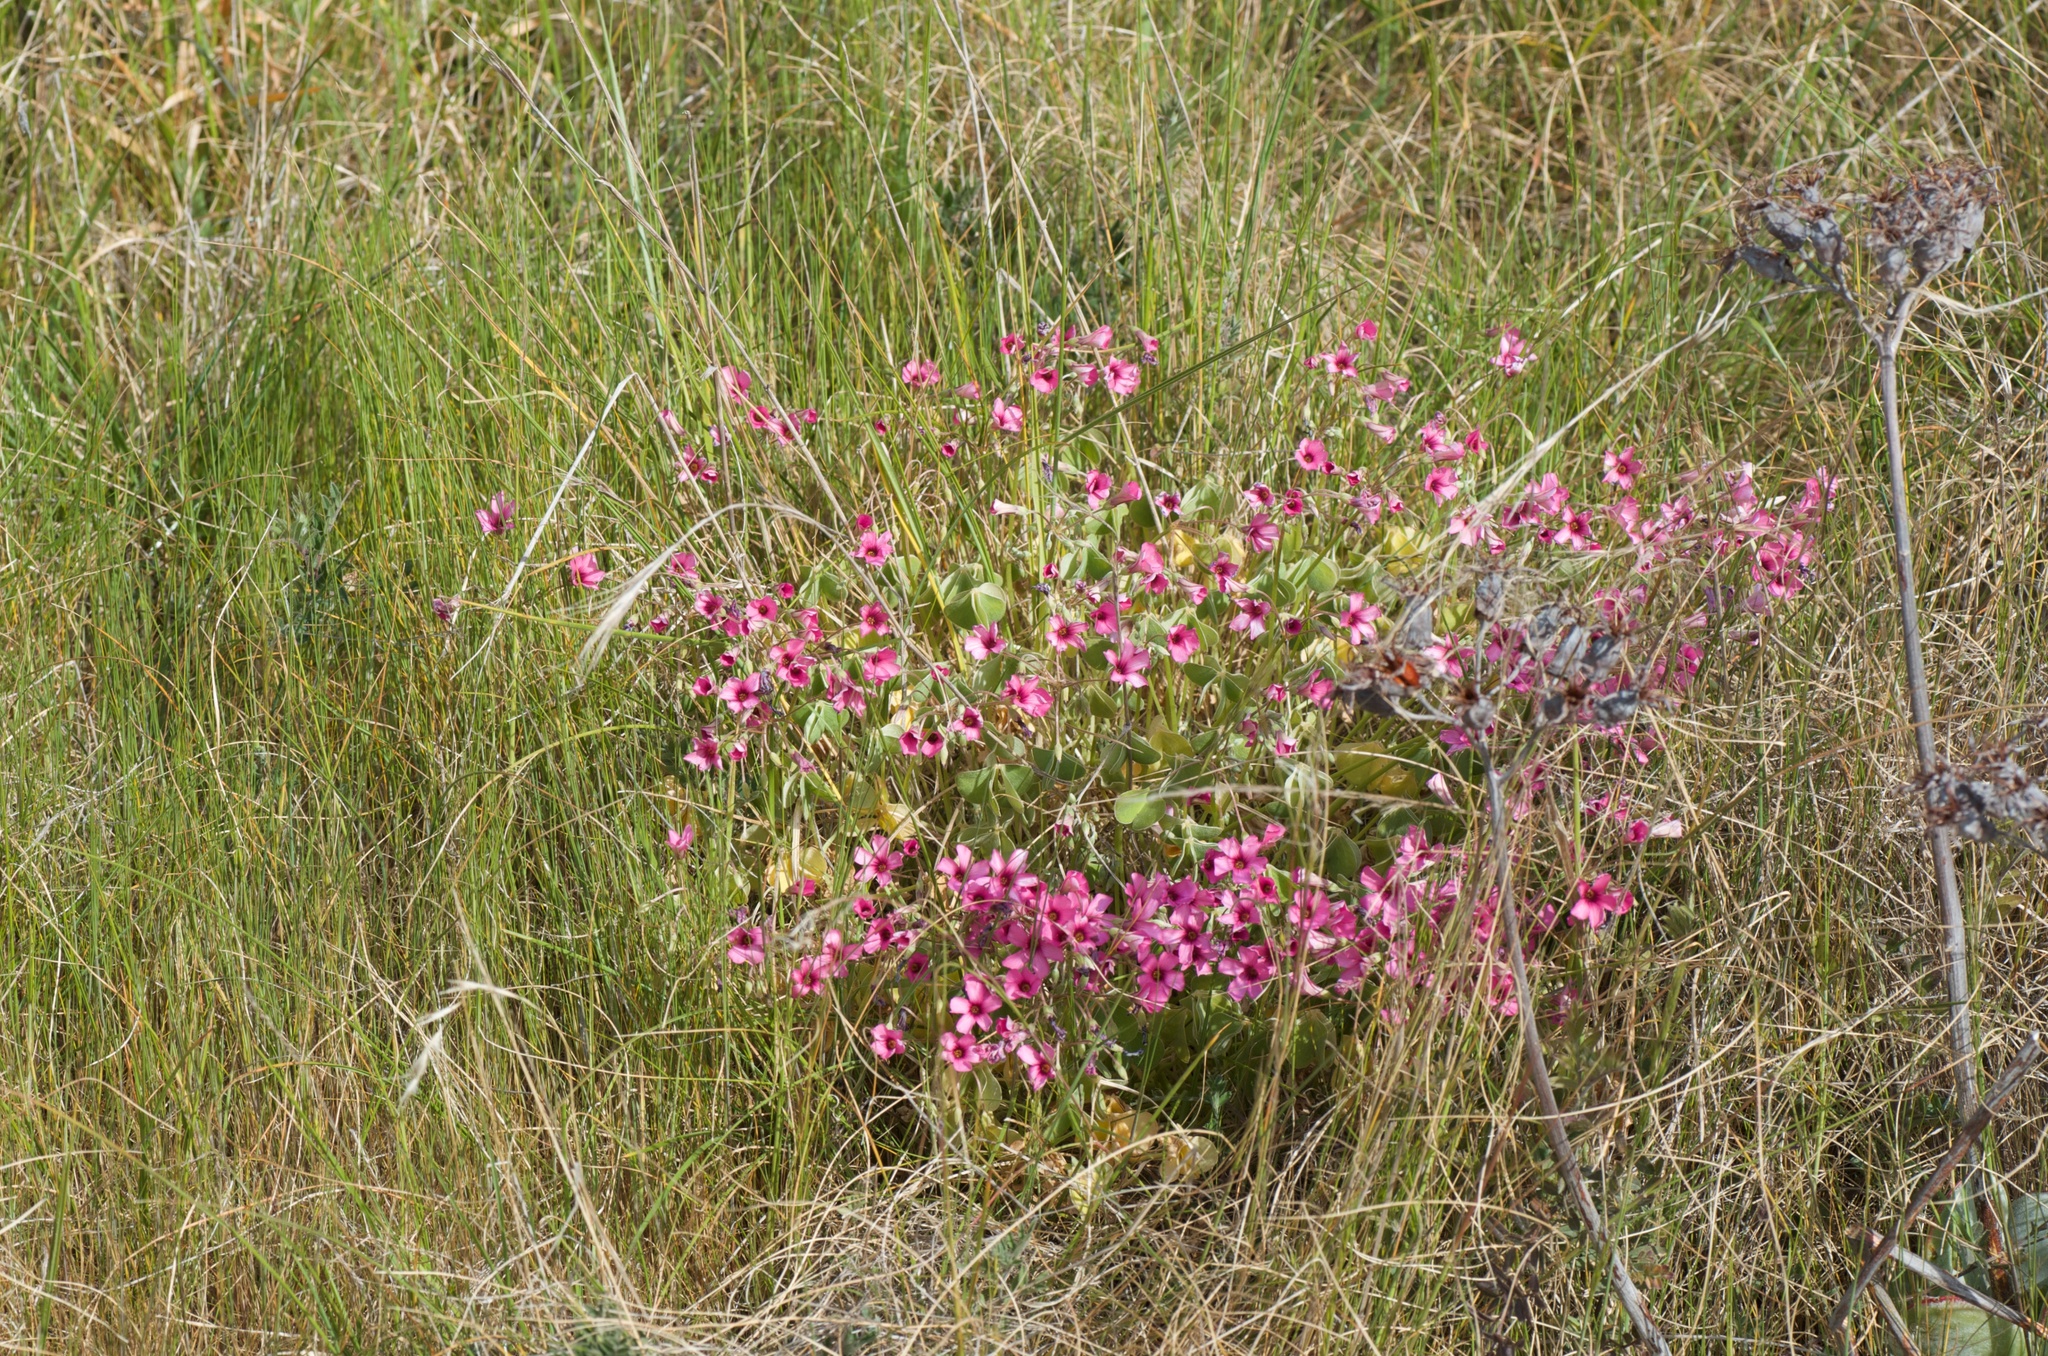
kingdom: Plantae
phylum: Tracheophyta
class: Magnoliopsida
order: Oxalidales
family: Oxalidaceae
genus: Oxalis
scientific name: Oxalis articulata
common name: Pink-sorrel
